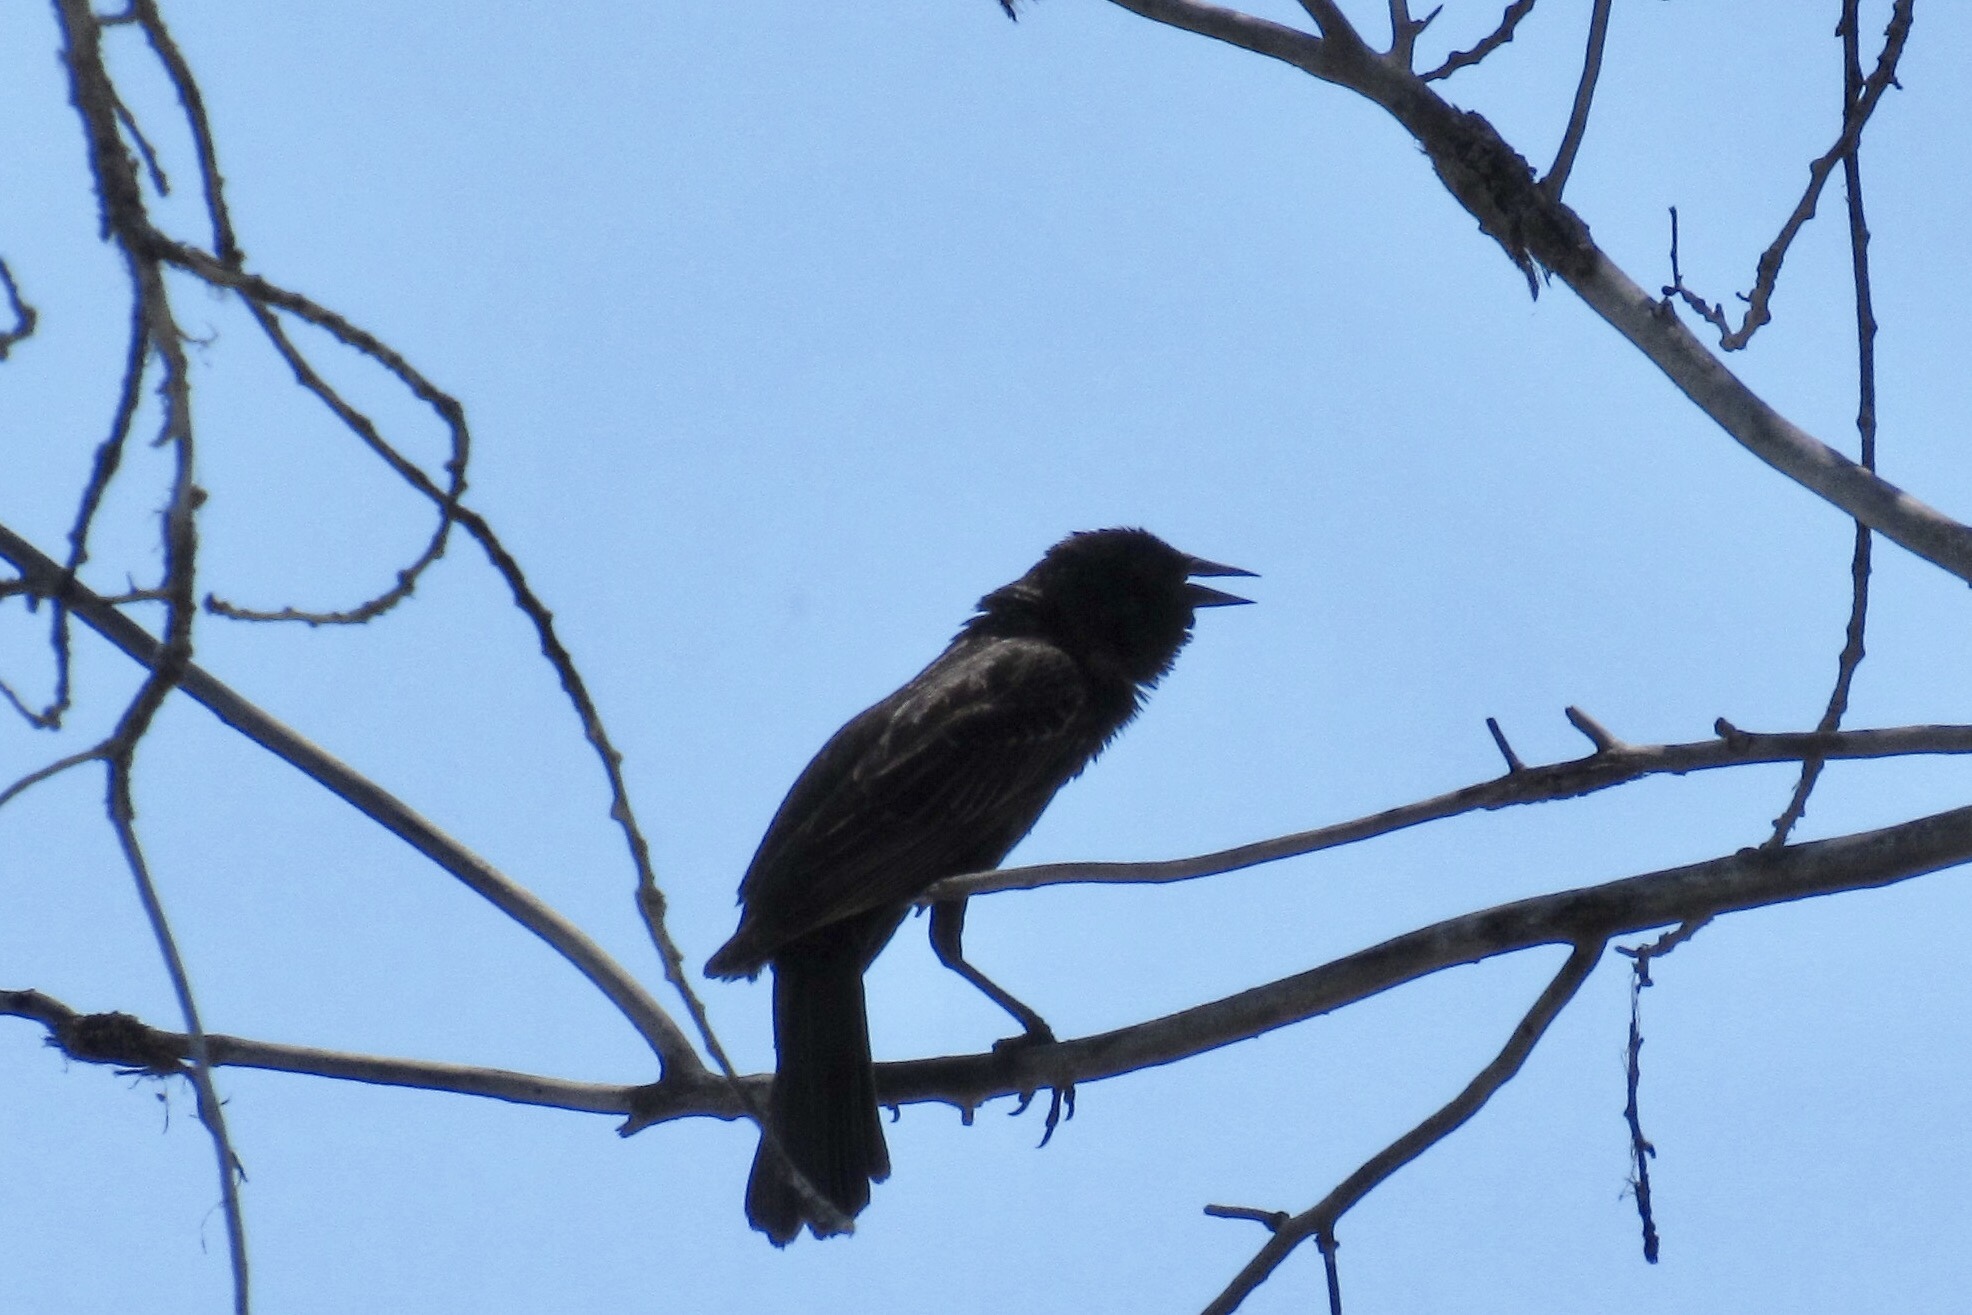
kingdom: Animalia
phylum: Chordata
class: Aves
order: Passeriformes
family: Icteridae
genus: Agelaius
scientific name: Agelaius phoeniceus
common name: Red-winged blackbird
